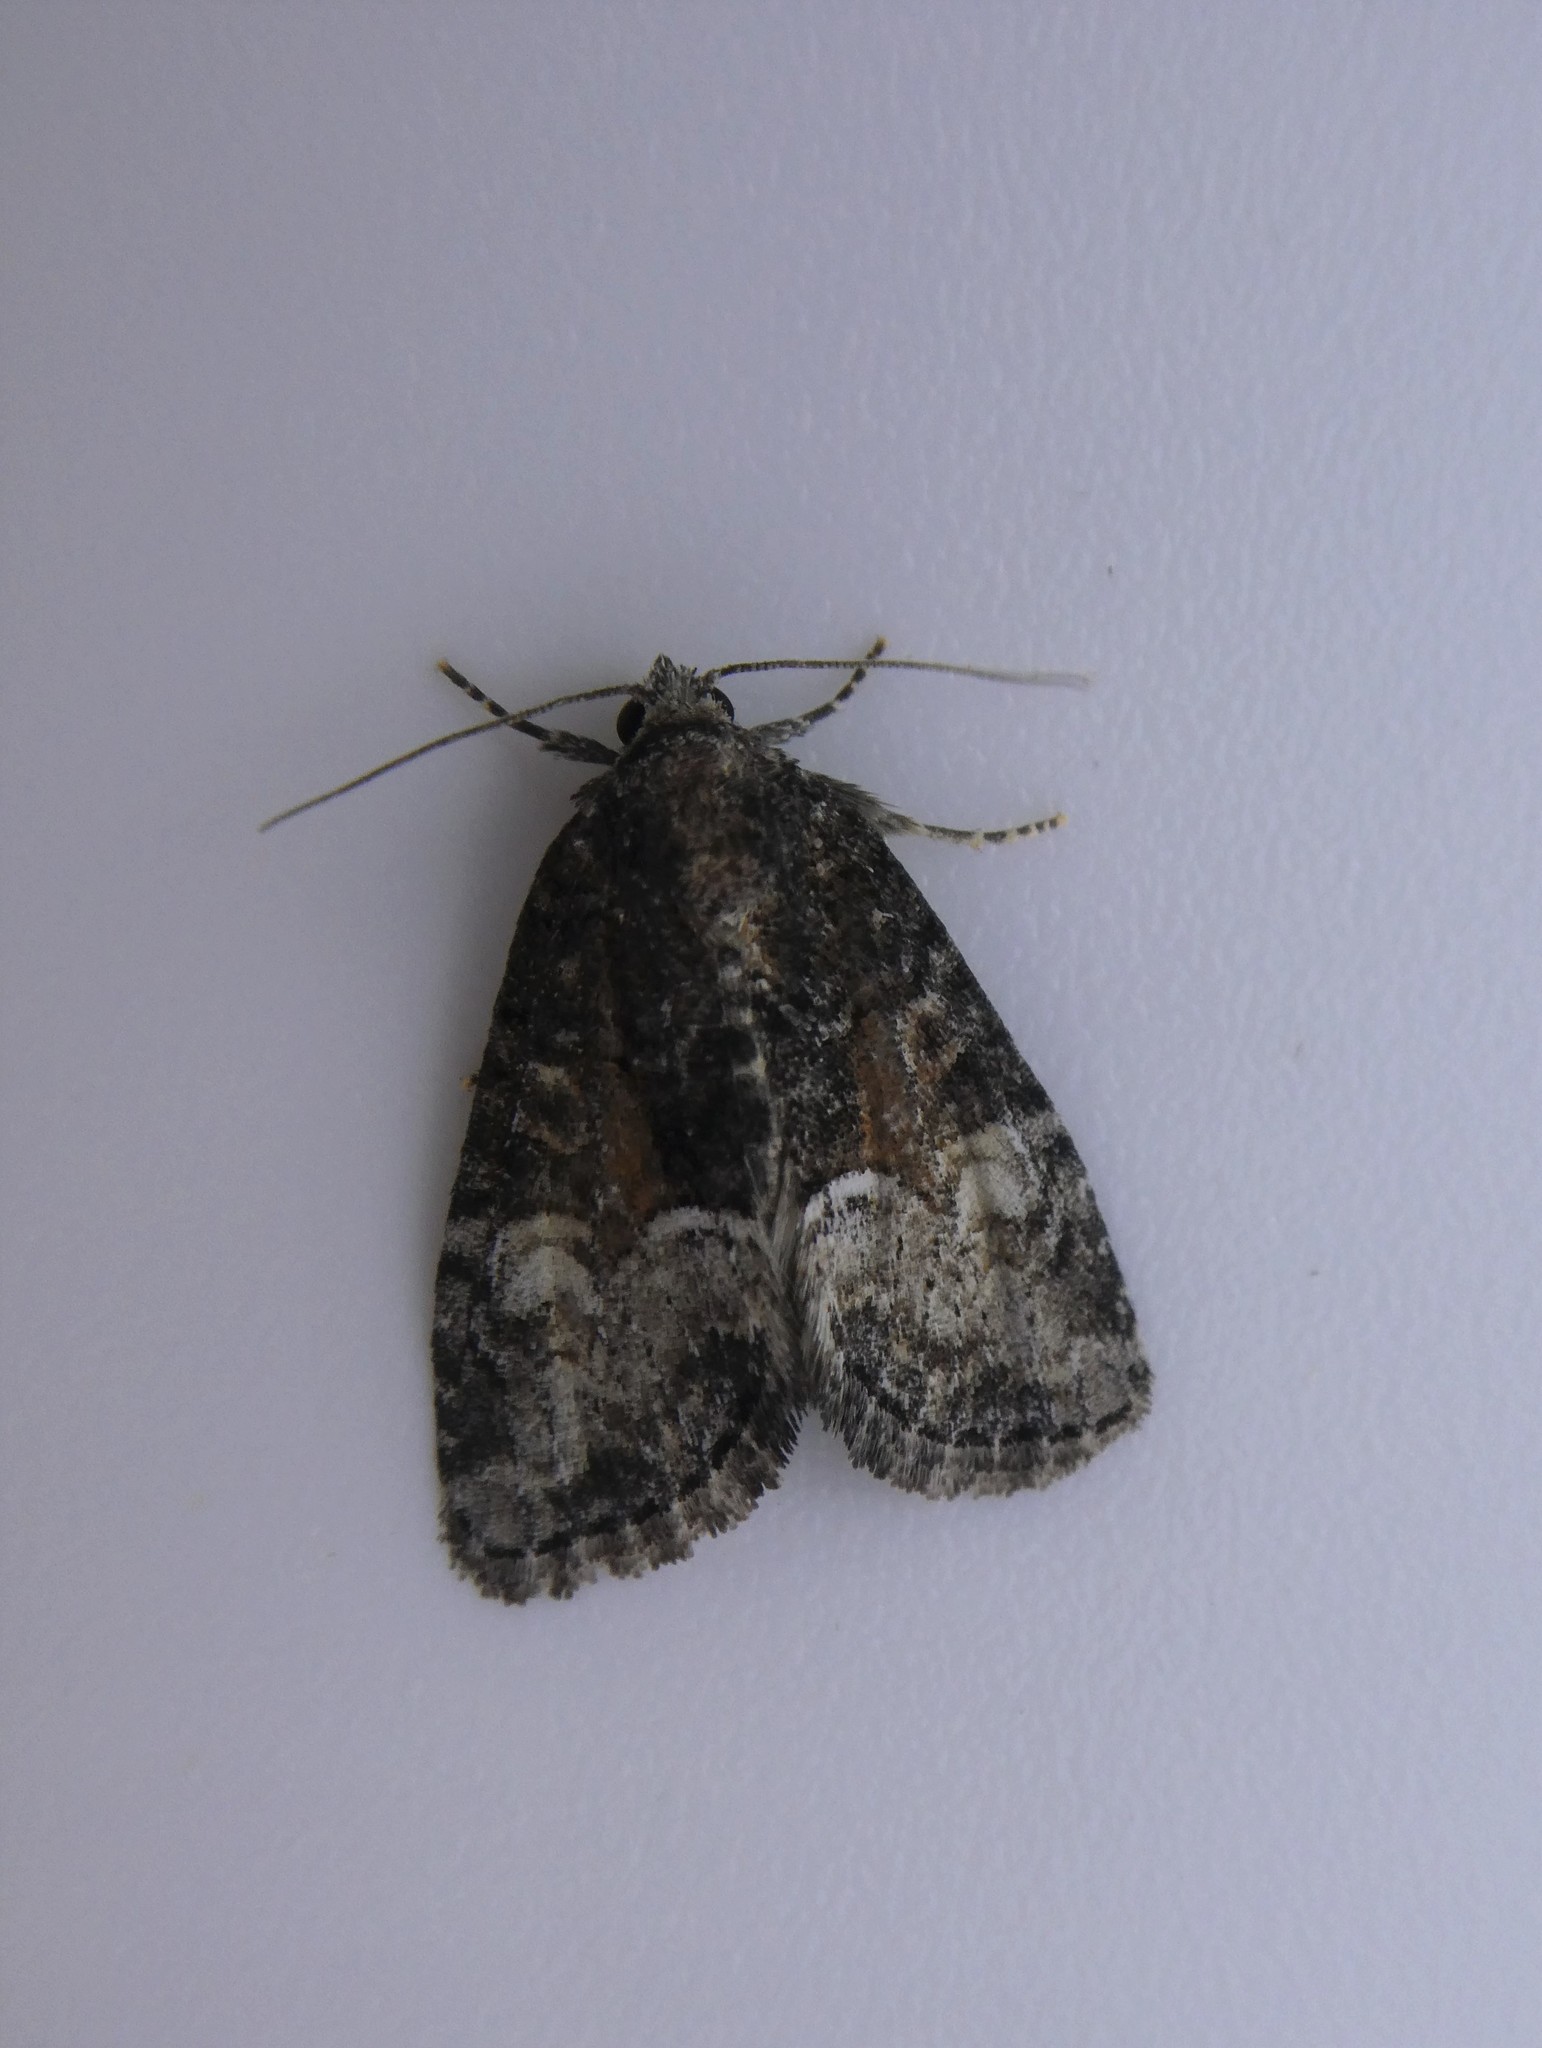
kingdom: Animalia
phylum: Arthropoda
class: Insecta
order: Lepidoptera
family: Noctuidae
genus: Neoligia
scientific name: Neoligia subjuncta
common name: Connected brocade
